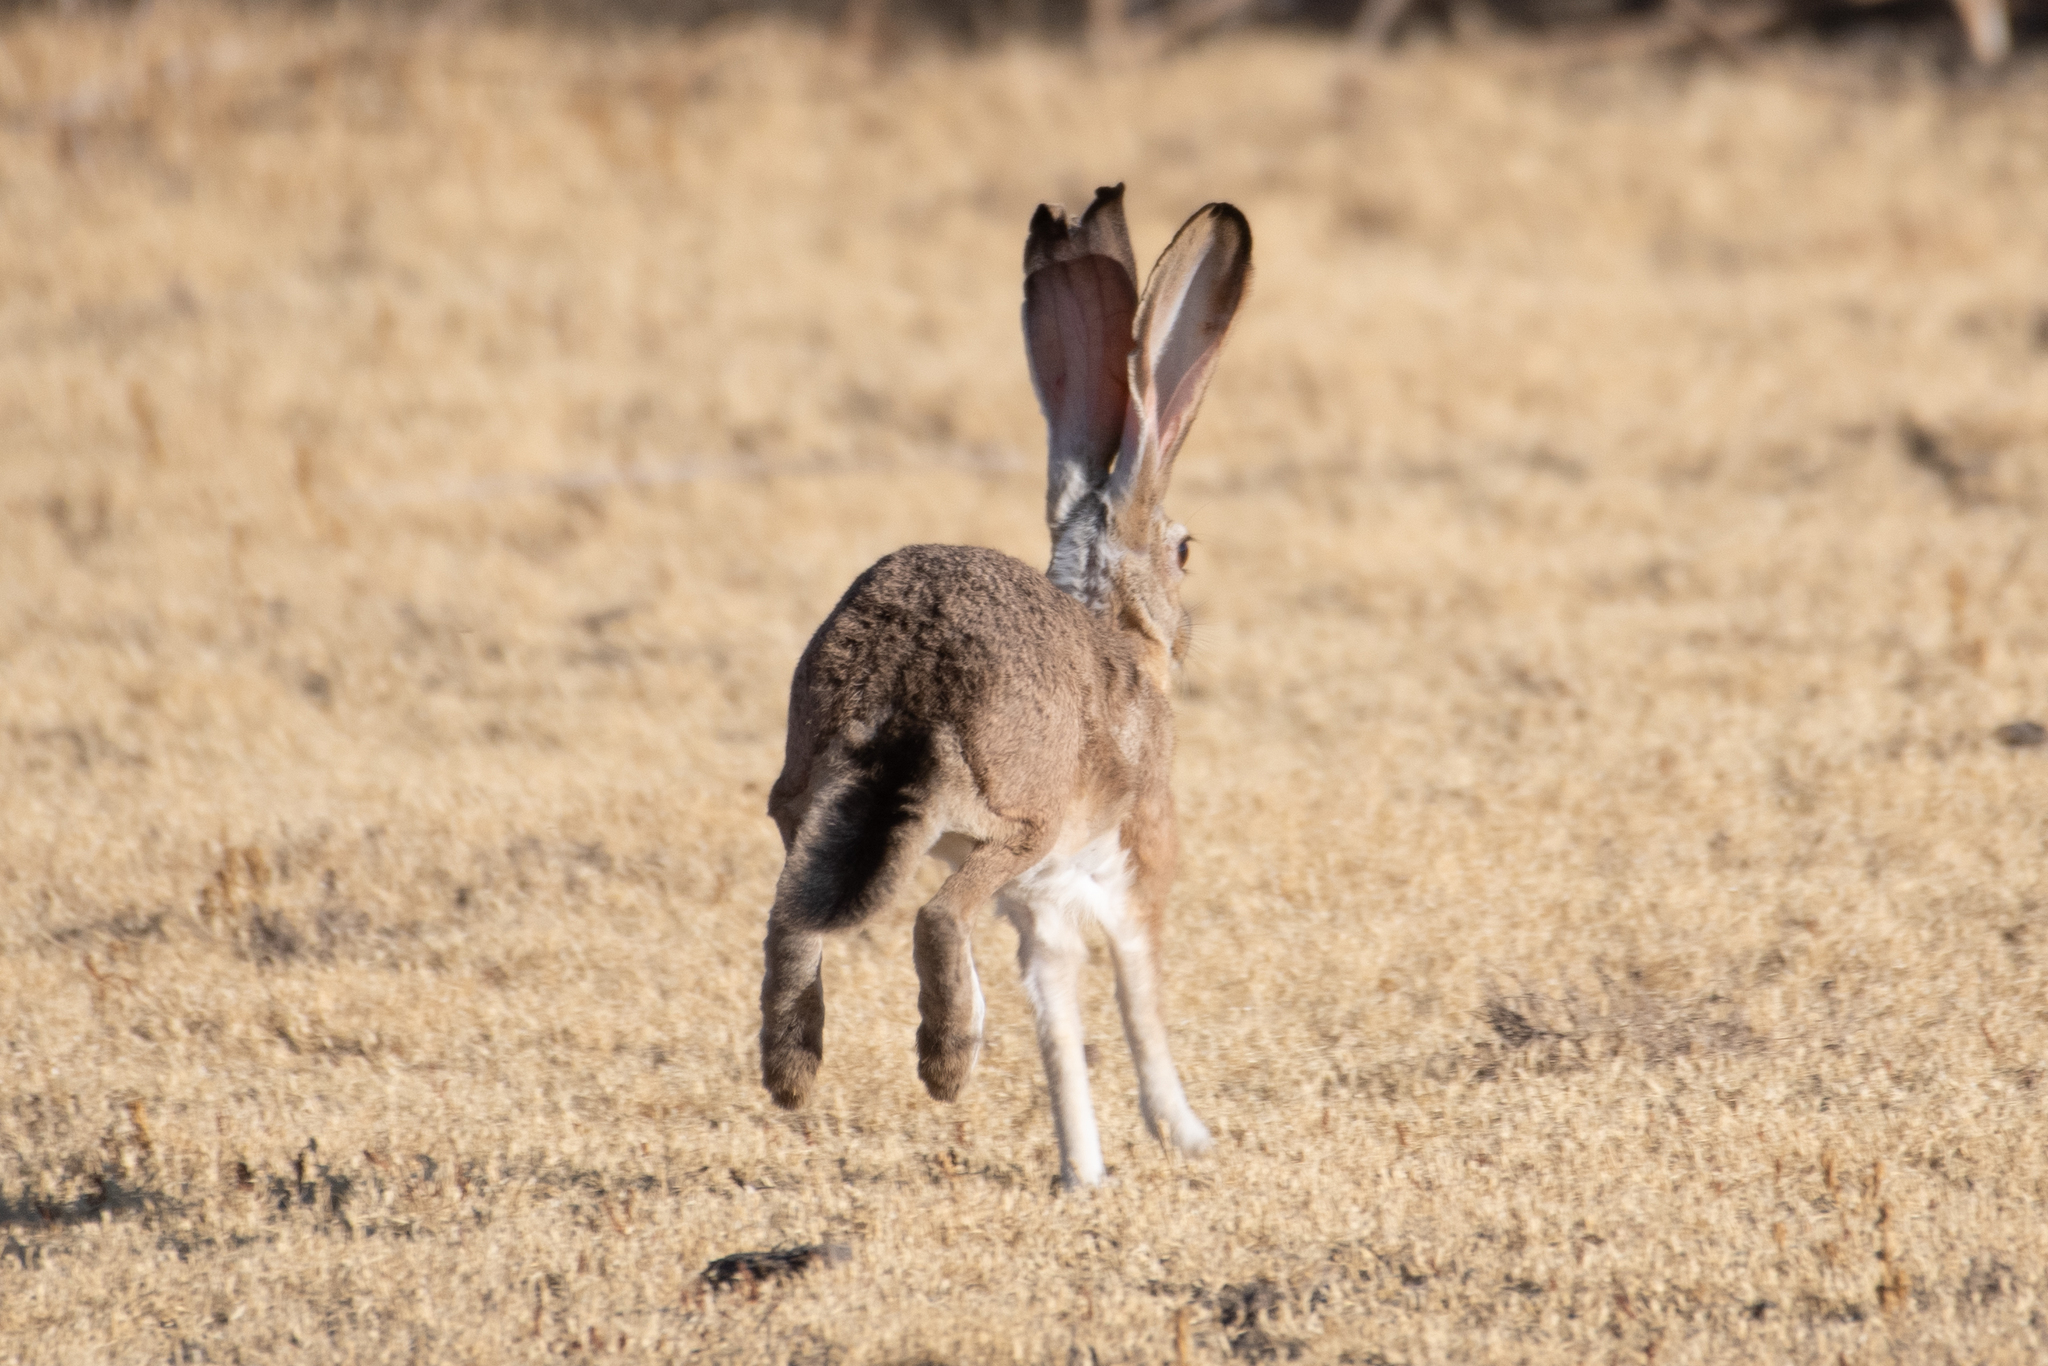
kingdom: Animalia
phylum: Chordata
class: Mammalia
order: Lagomorpha
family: Leporidae
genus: Lepus
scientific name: Lepus californicus
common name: Black-tailed jackrabbit
